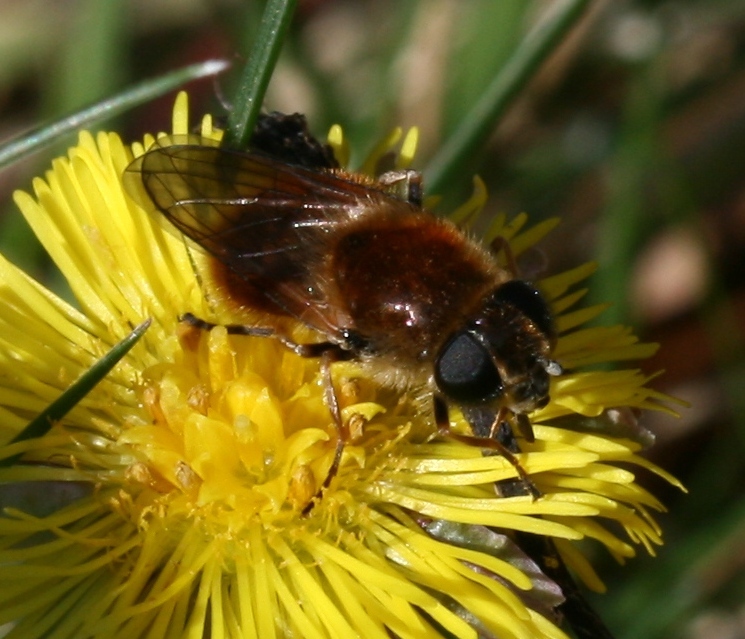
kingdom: Animalia
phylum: Arthropoda
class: Insecta
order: Diptera
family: Syrphidae
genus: Cheilosia
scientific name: Cheilosia corydon
